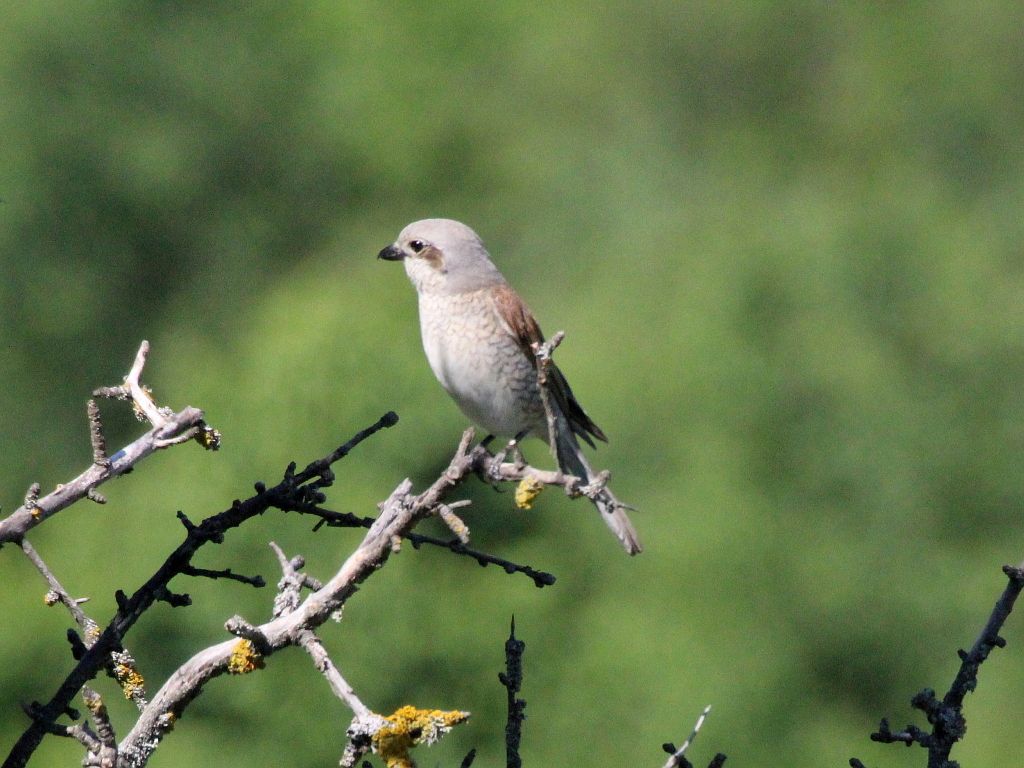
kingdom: Animalia
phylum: Chordata
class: Aves
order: Passeriformes
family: Laniidae
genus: Lanius
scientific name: Lanius collurio
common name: Red-backed shrike
